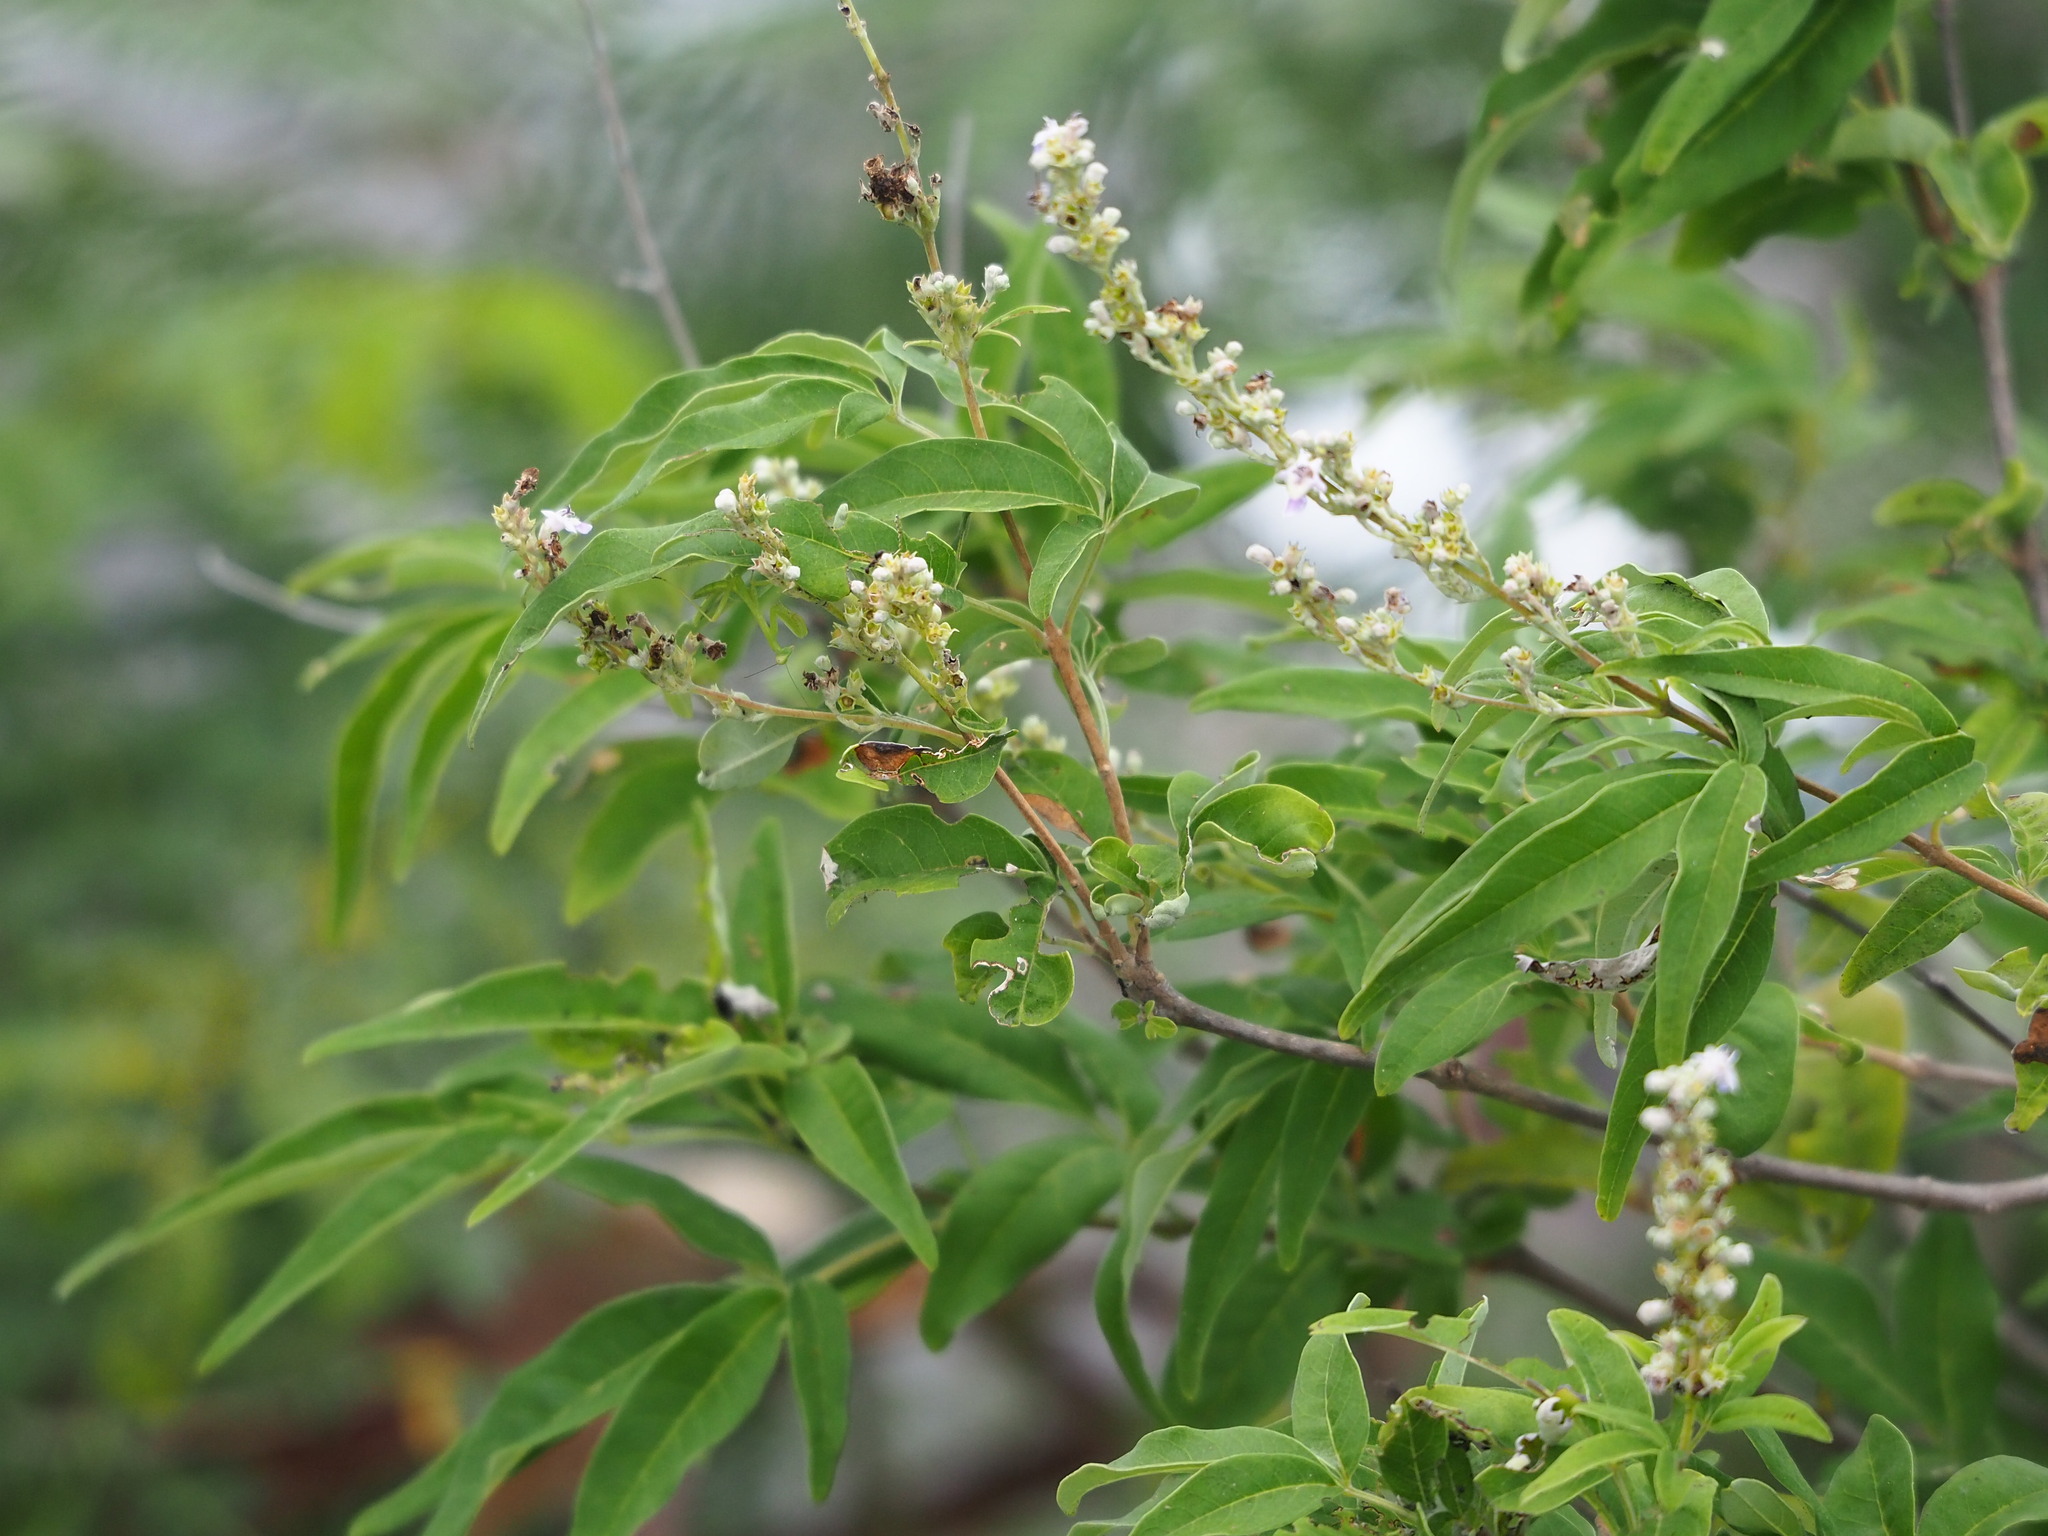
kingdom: Plantae
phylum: Tracheophyta
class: Magnoliopsida
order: Lamiales
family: Lamiaceae
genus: Vitex
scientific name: Vitex negundo
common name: Chinese chastetree
